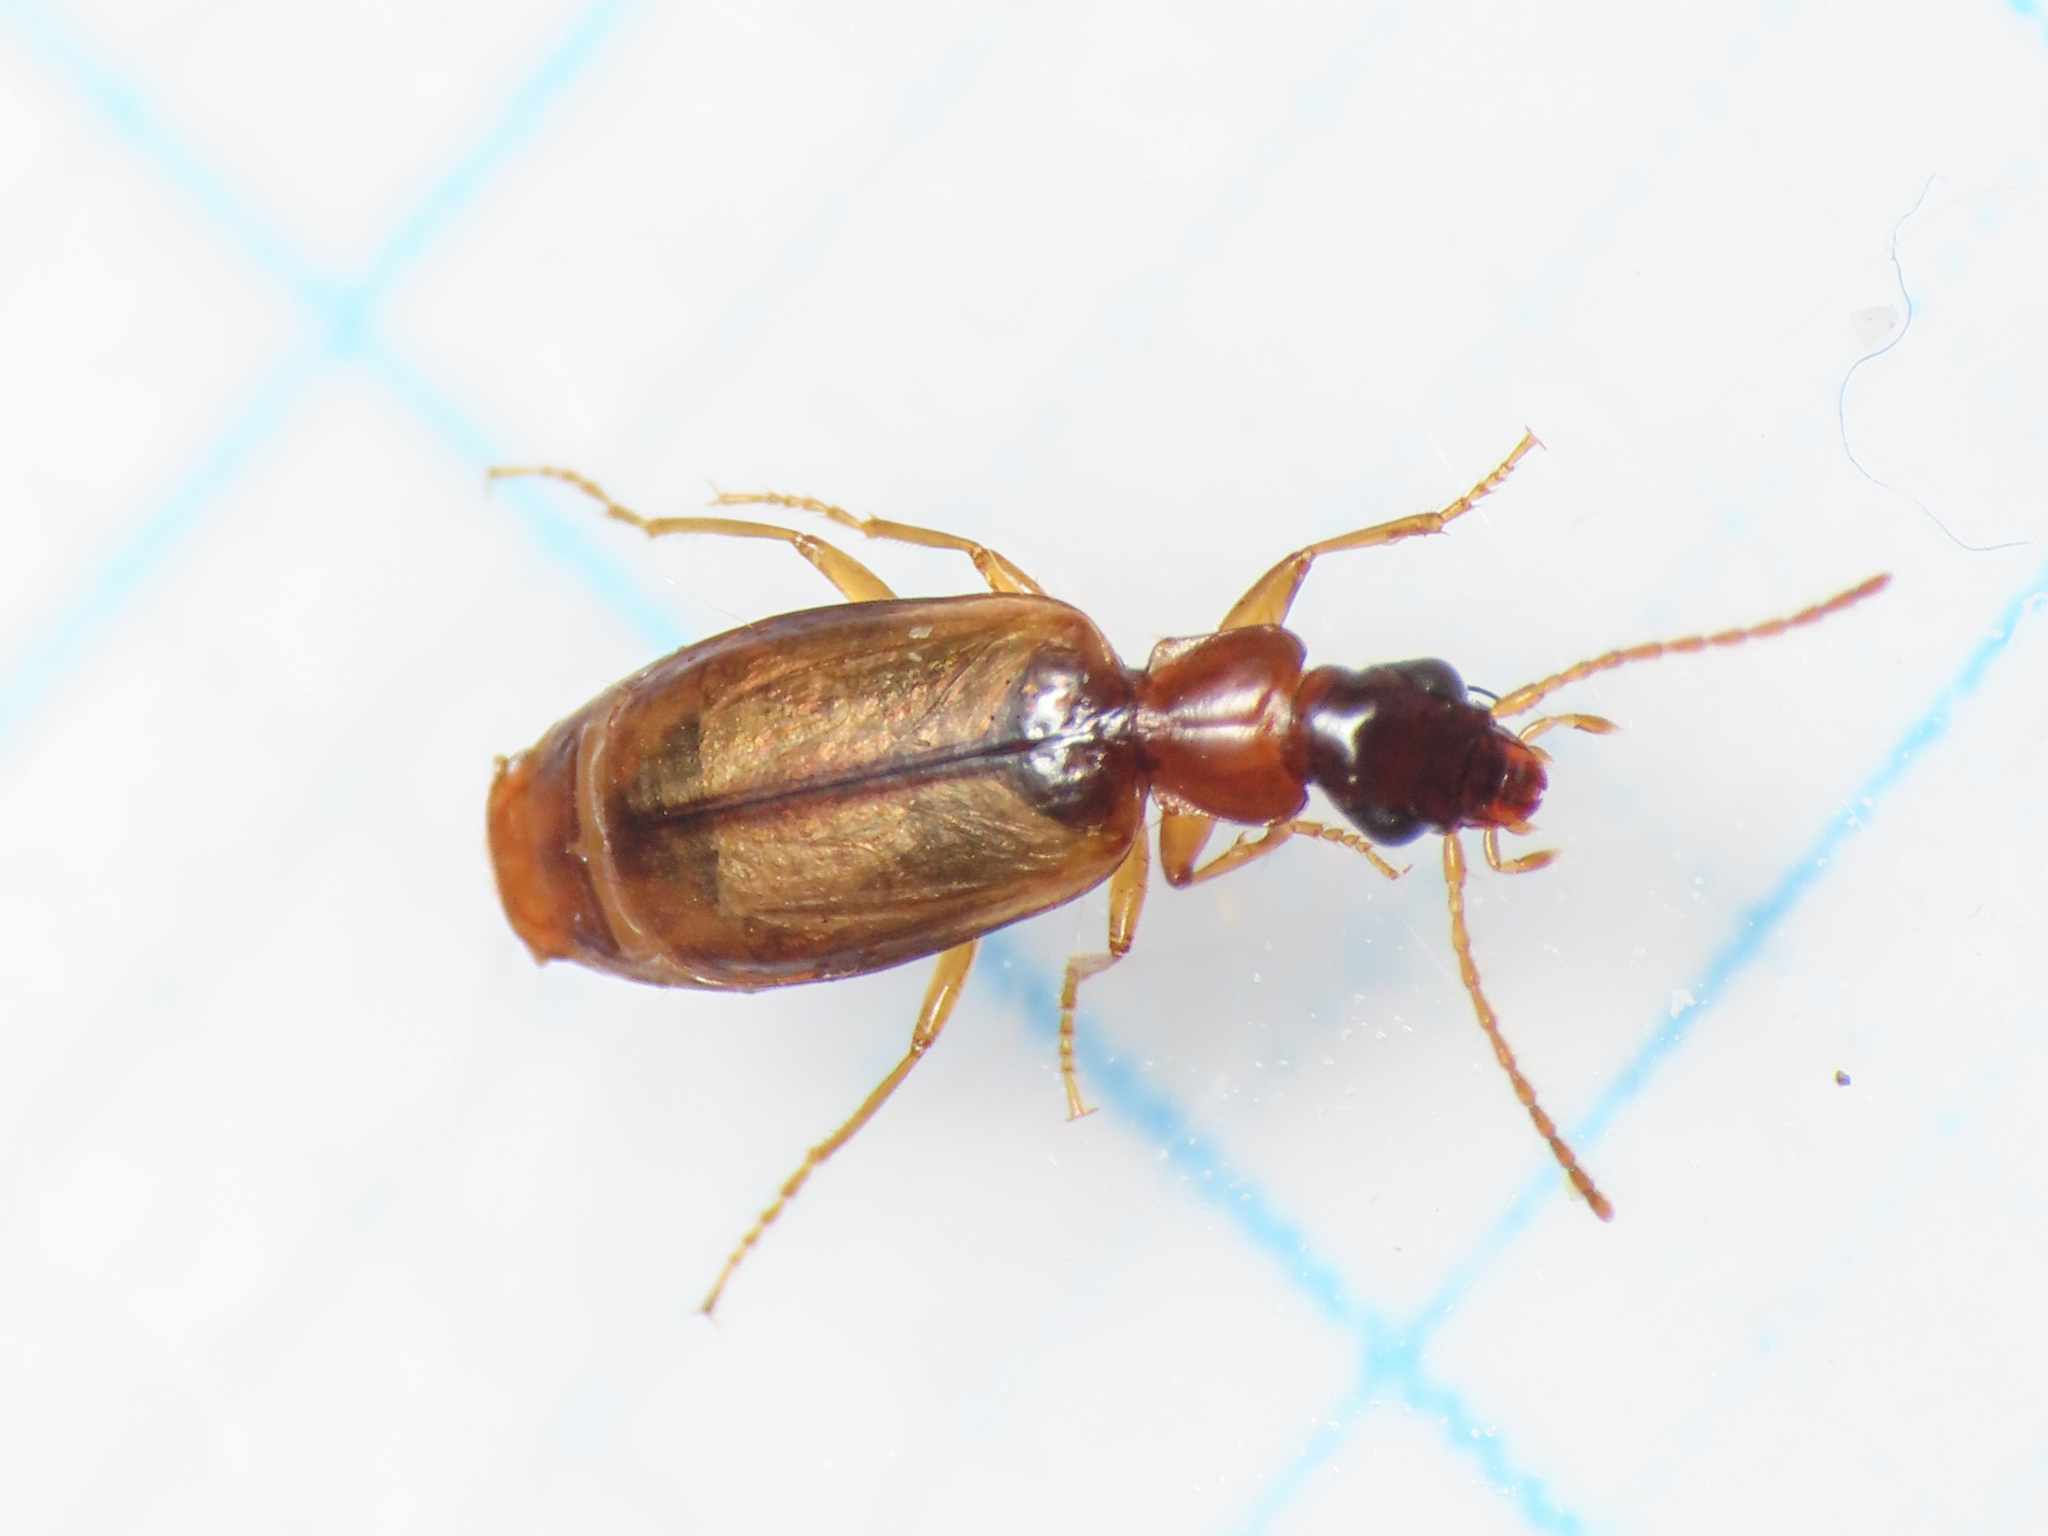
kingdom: Animalia
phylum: Arthropoda
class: Insecta
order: Coleoptera
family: Carabidae
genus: Philorhizus
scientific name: Philorhizus melanocephalus
